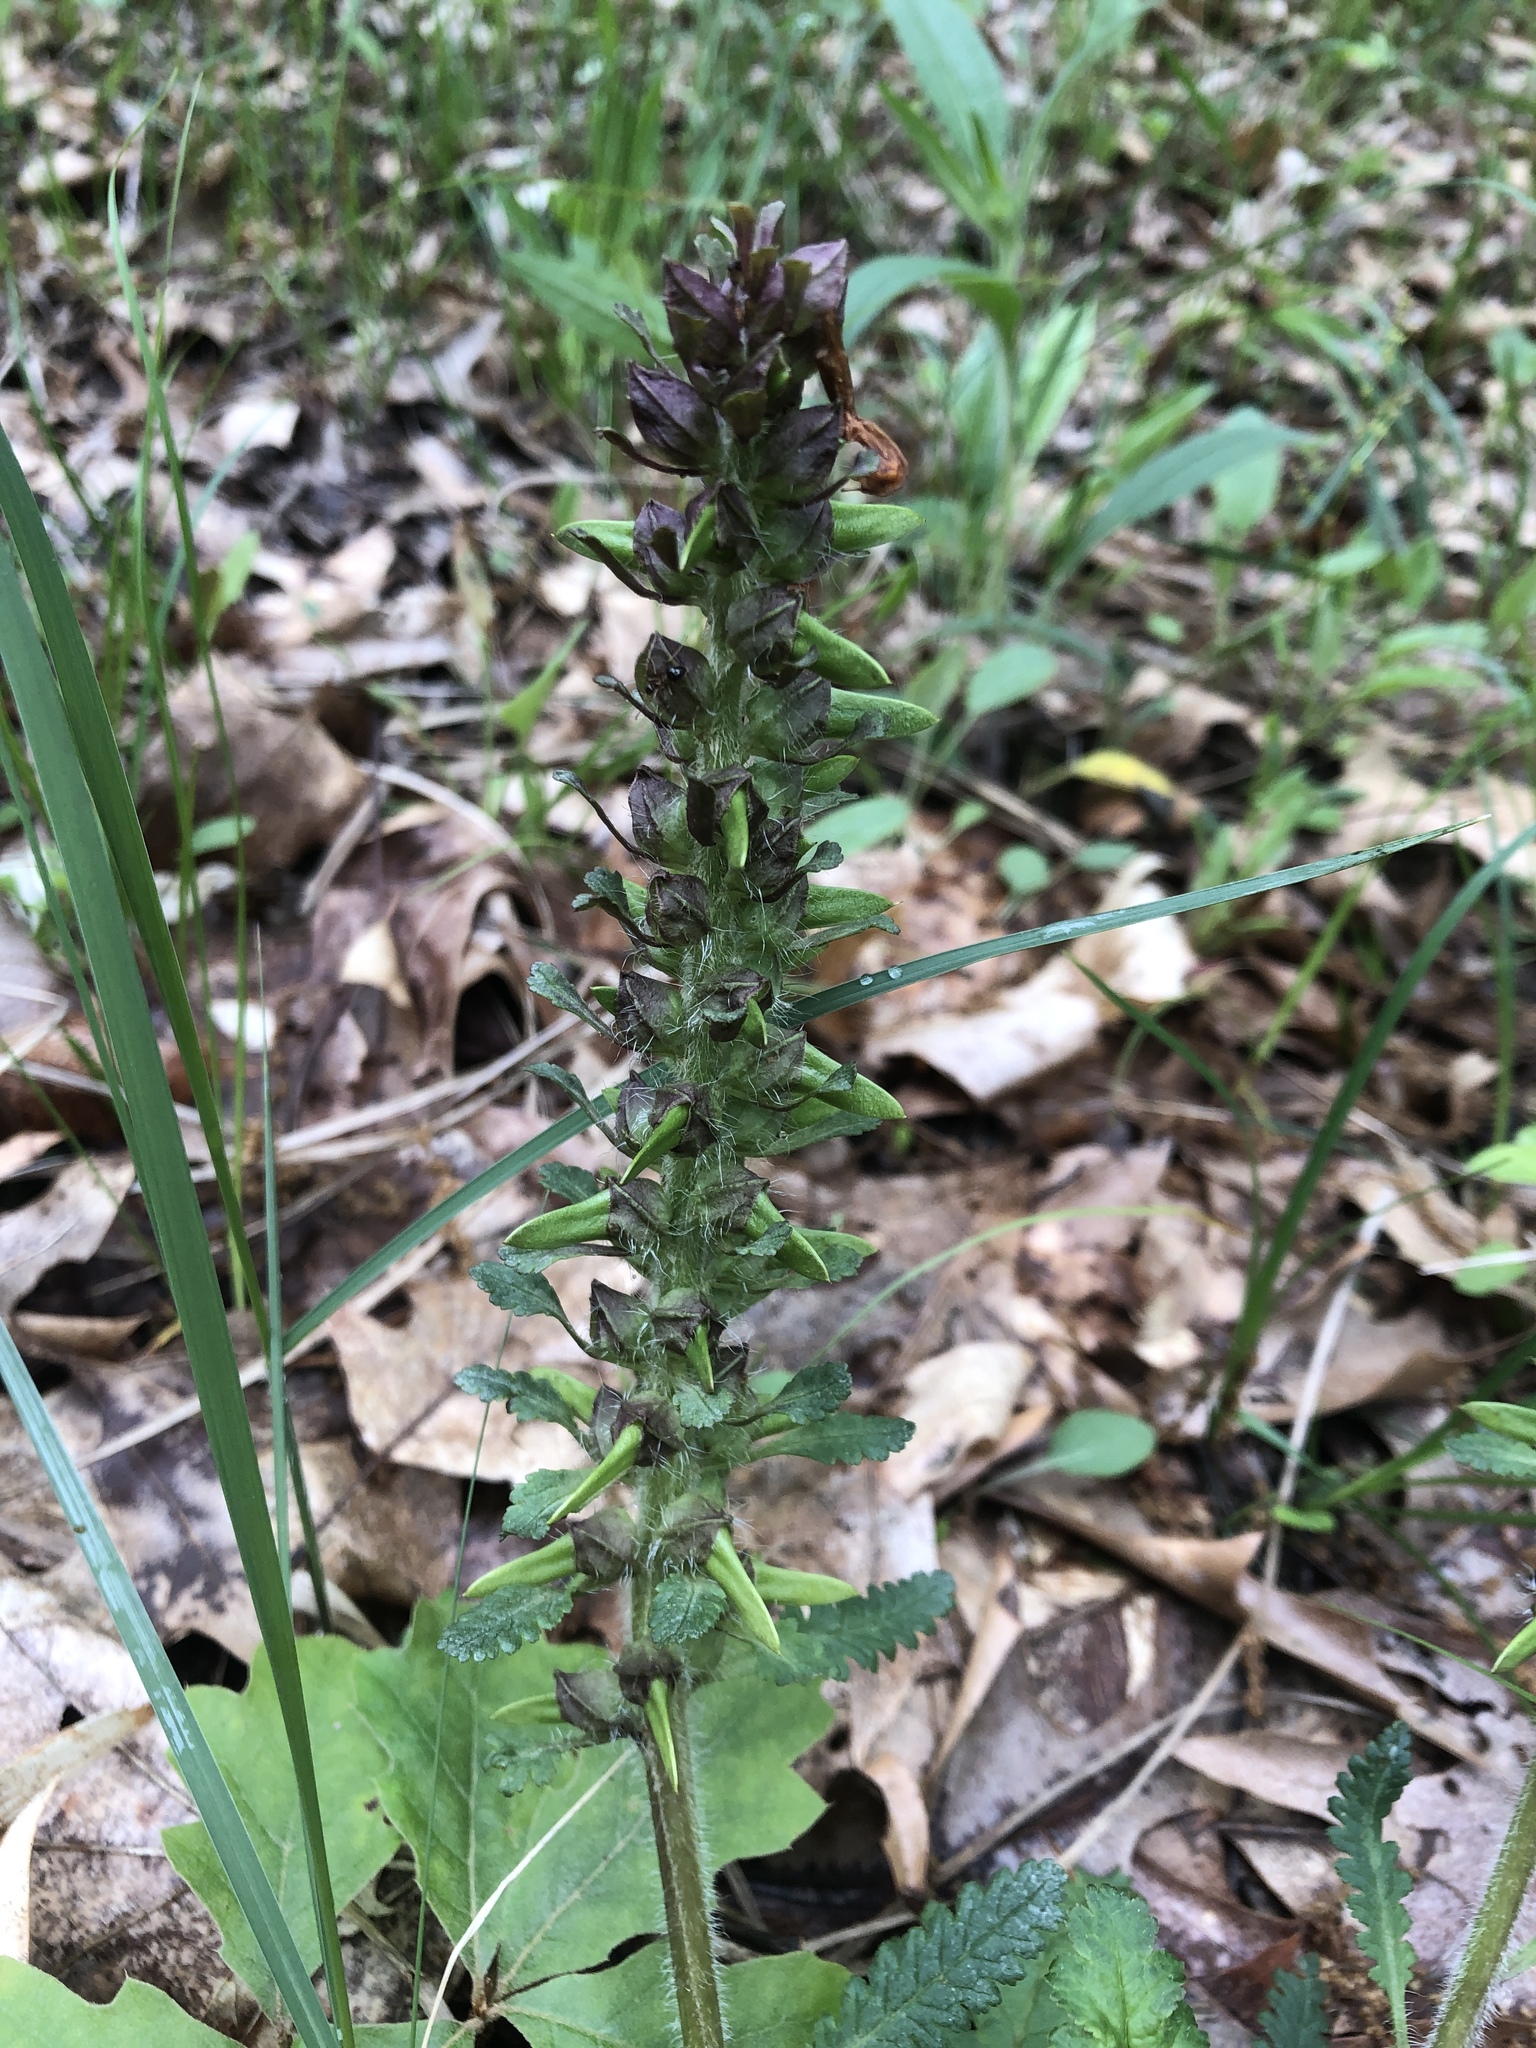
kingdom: Plantae
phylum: Tracheophyta
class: Magnoliopsida
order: Lamiales
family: Orobanchaceae
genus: Pedicularis
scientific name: Pedicularis canadensis
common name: Early lousewort
